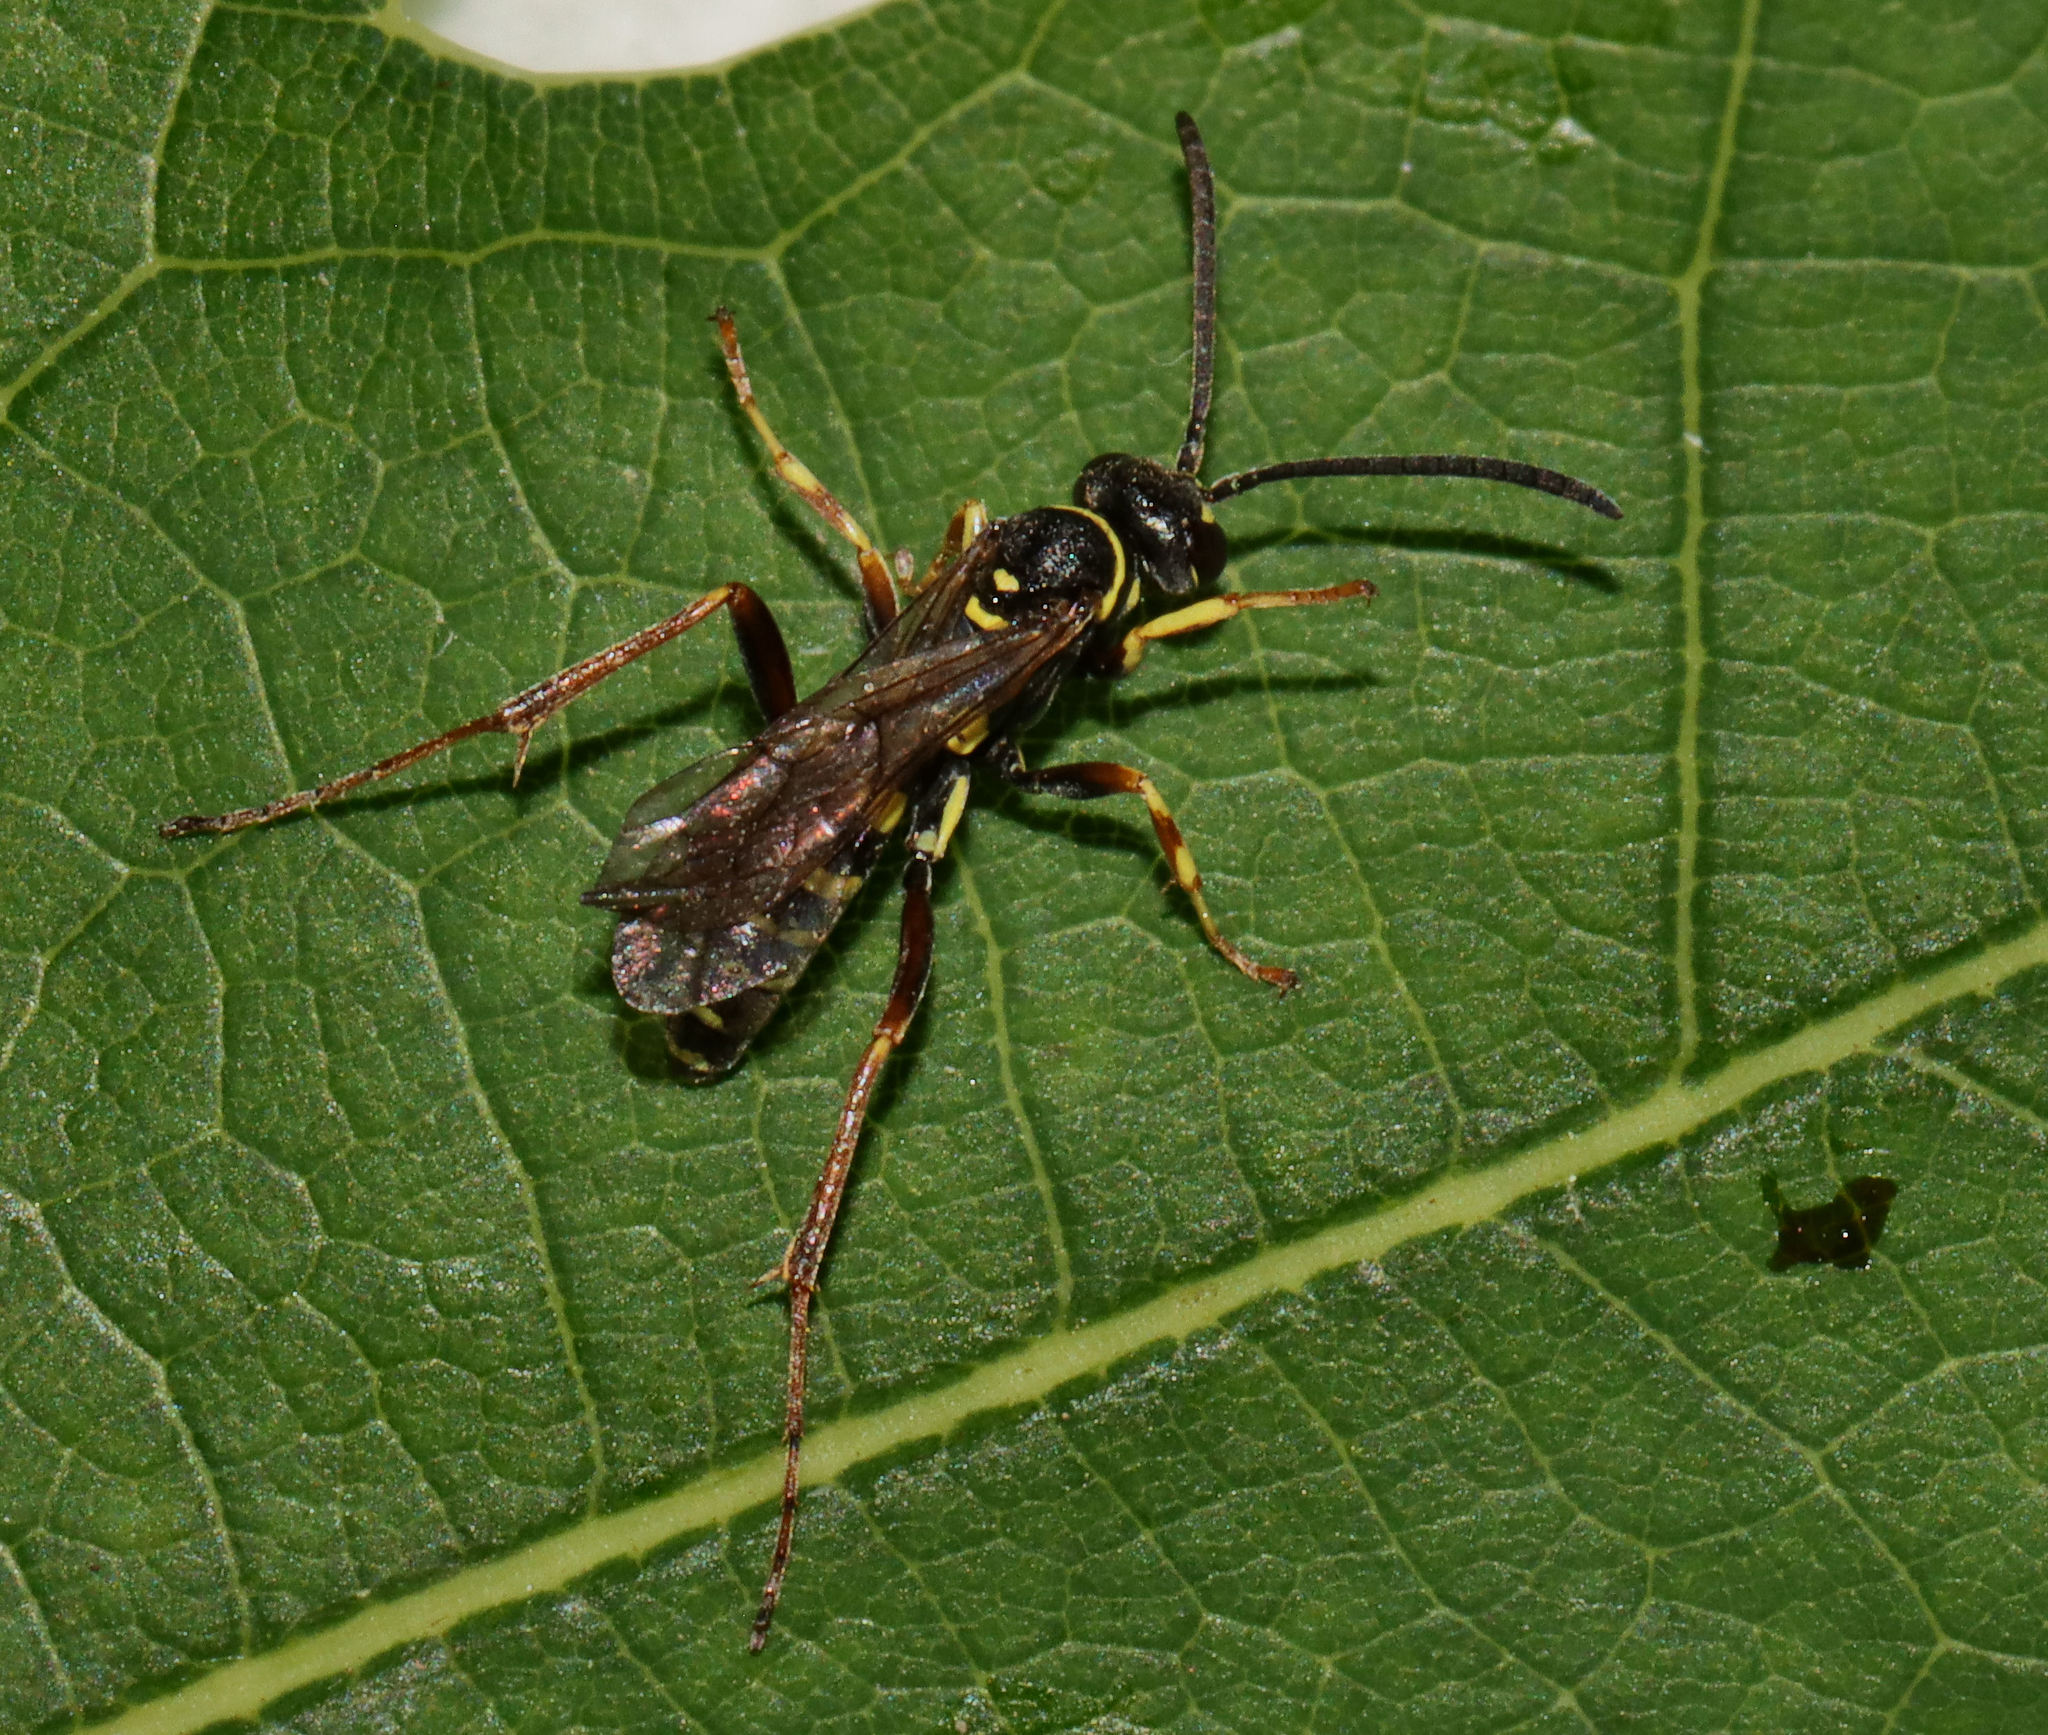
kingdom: Animalia
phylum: Arthropoda
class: Insecta
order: Hymenoptera
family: Pompilidae
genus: Ceropales
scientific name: Ceropales maculata
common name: Spider wasp
